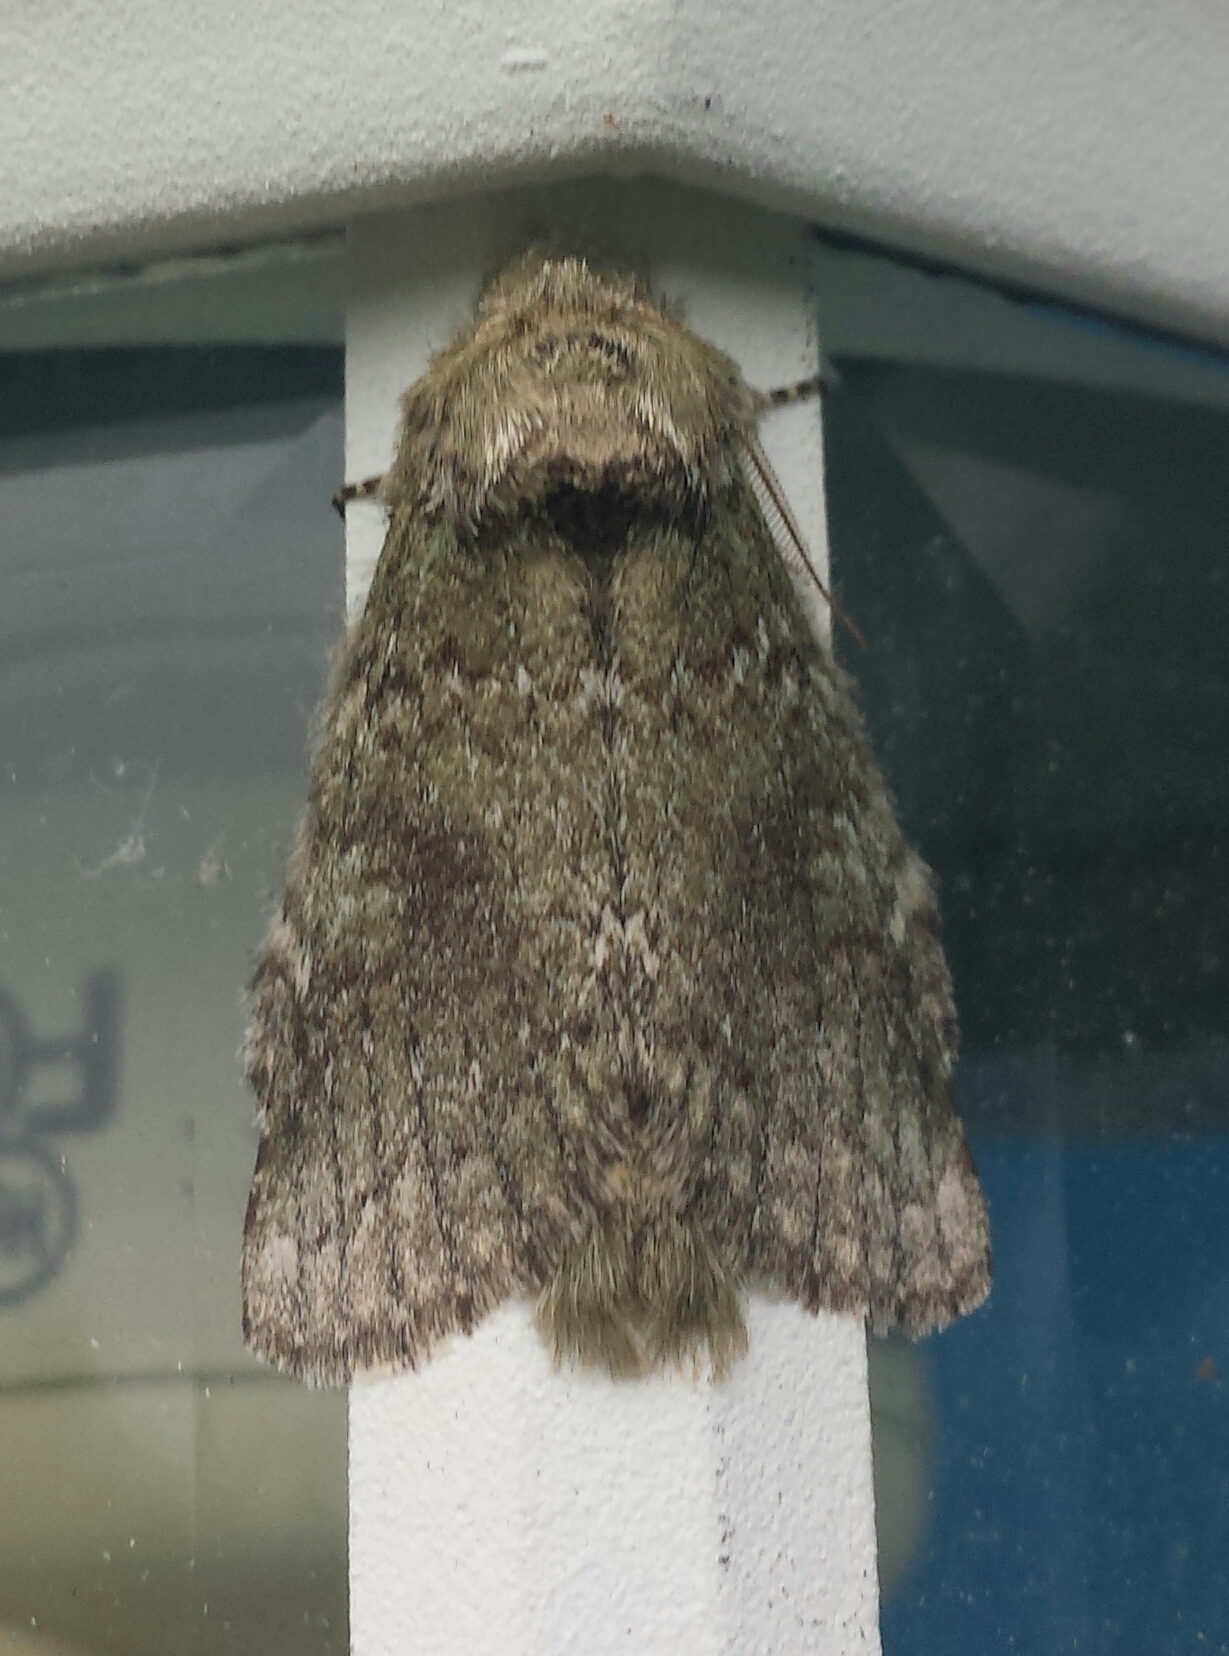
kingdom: Animalia
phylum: Arthropoda
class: Insecta
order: Lepidoptera
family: Notodontidae
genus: Disphragis
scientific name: Disphragis Cecrita guttivitta
